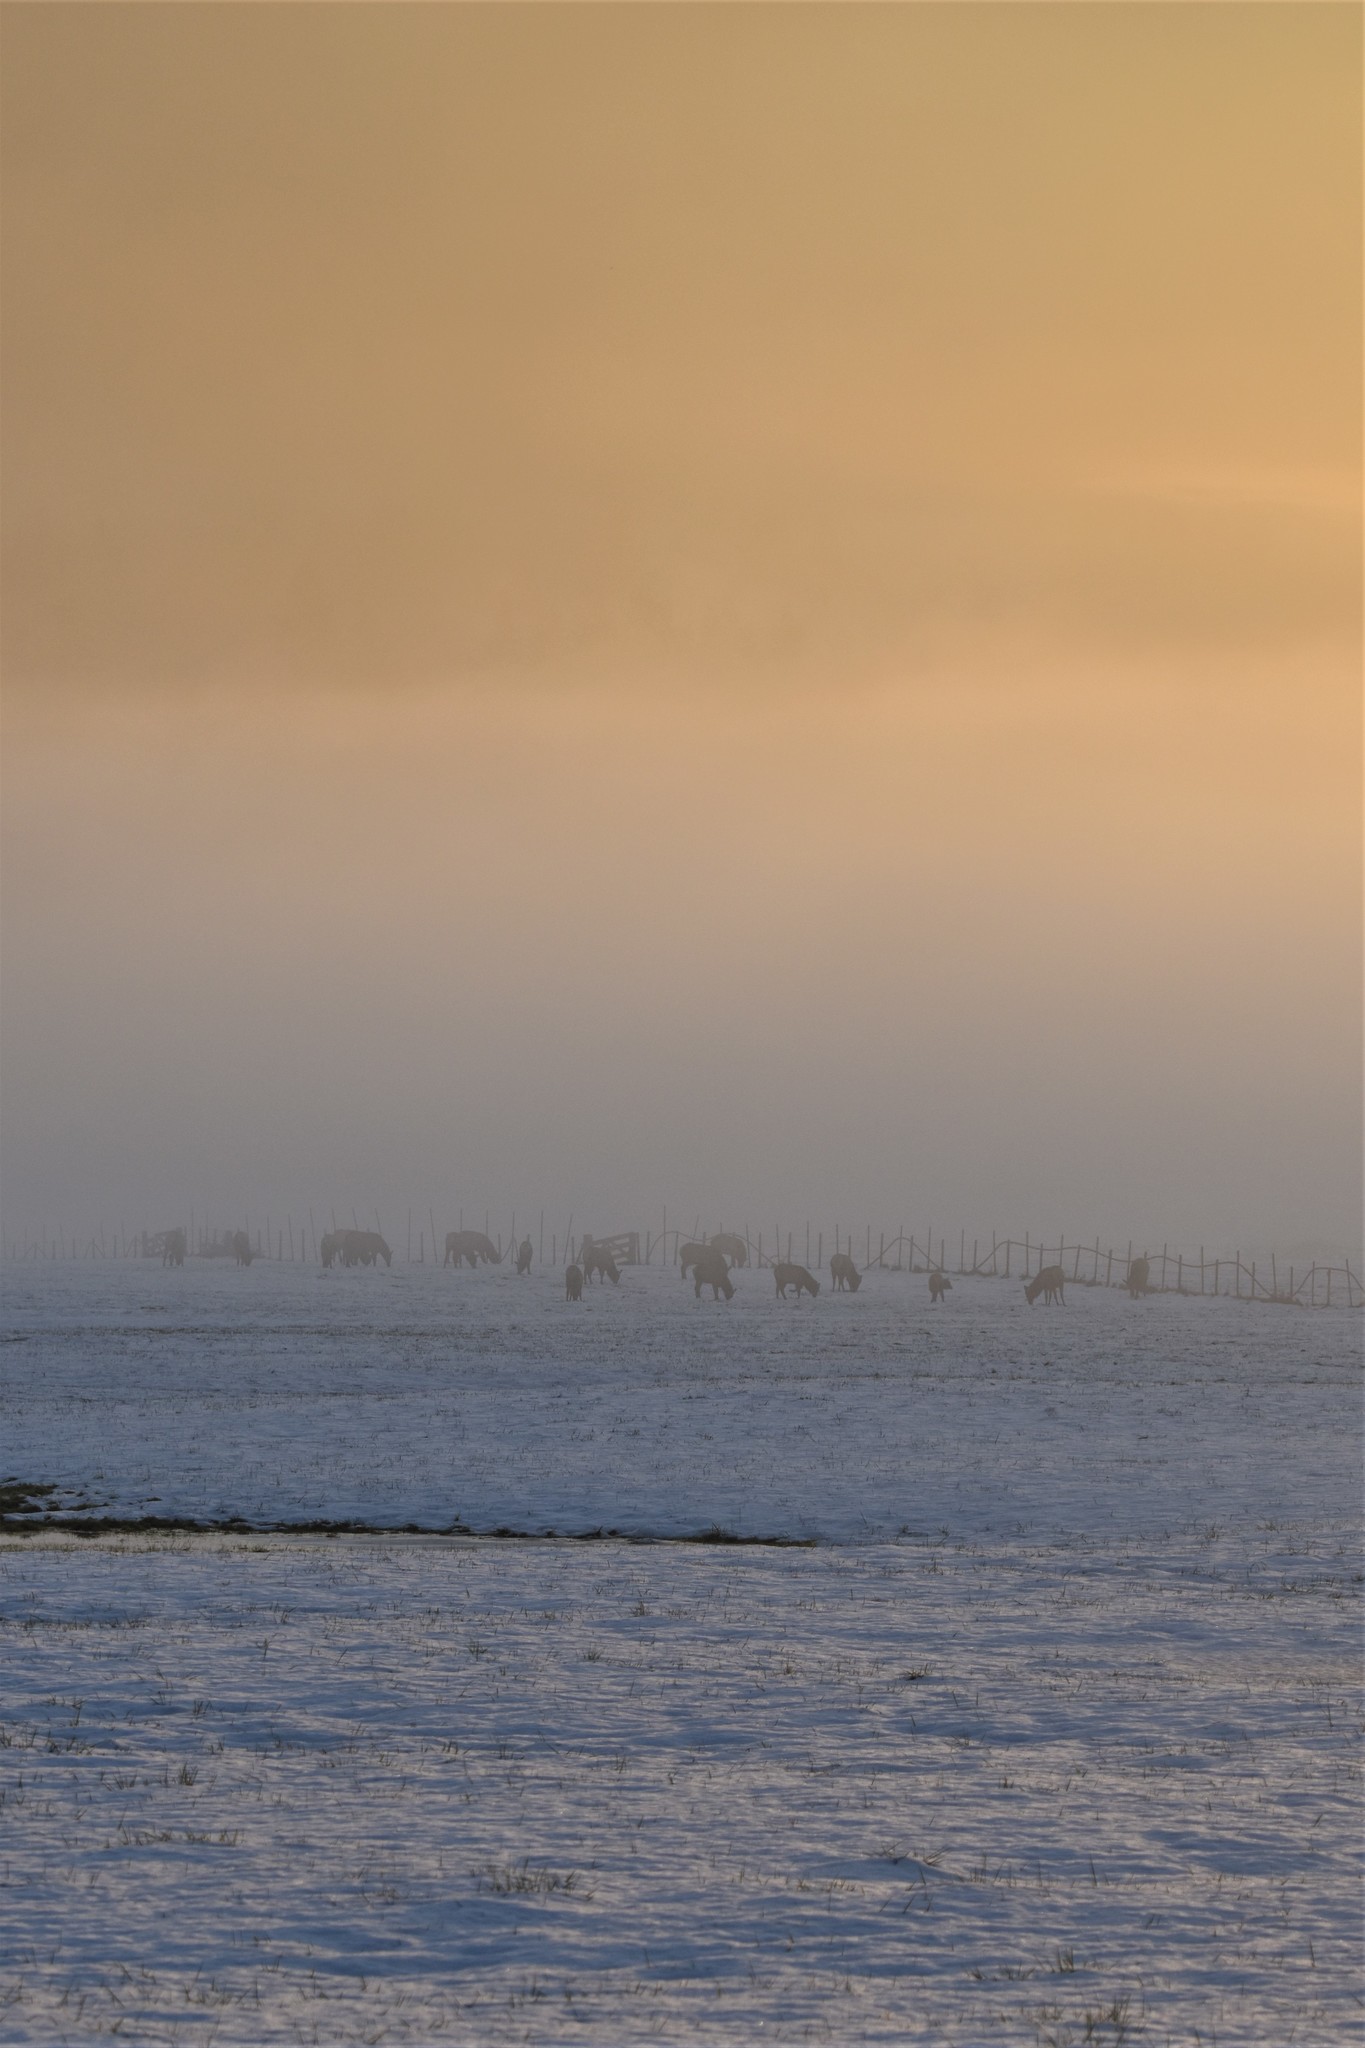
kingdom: Animalia
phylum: Chordata
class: Mammalia
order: Artiodactyla
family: Cervidae
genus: Cervus
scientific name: Cervus elaphus
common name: Red deer
